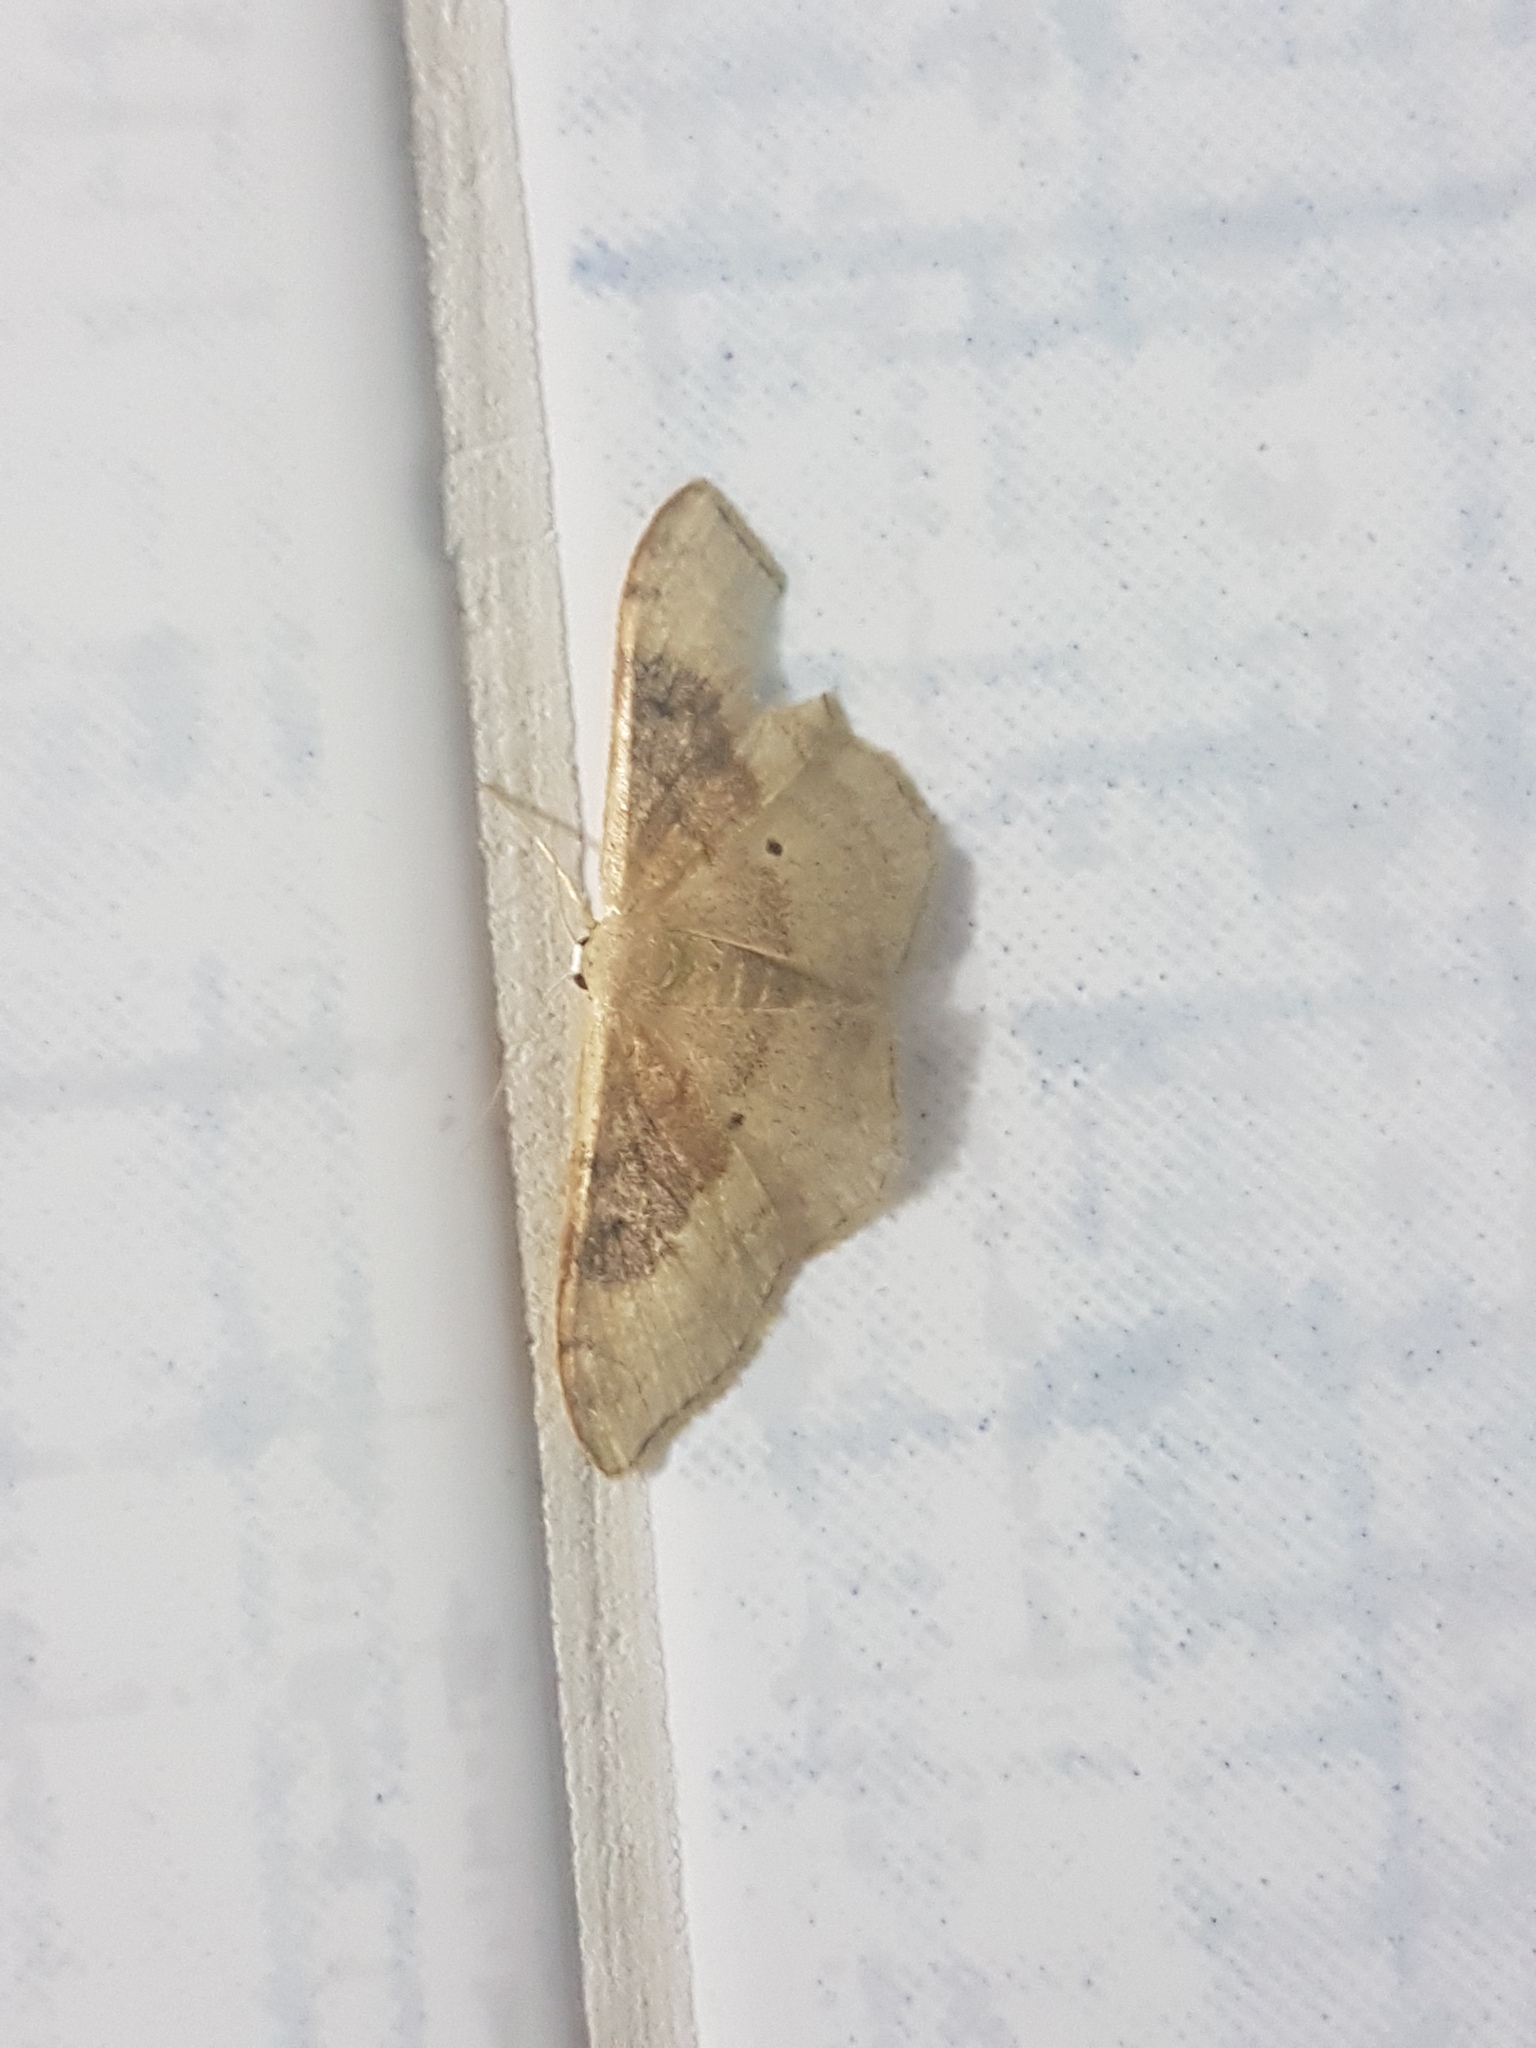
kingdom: Animalia
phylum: Arthropoda
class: Insecta
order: Lepidoptera
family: Geometridae
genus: Idaea
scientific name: Idaea degeneraria
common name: Portland ribbon wave
